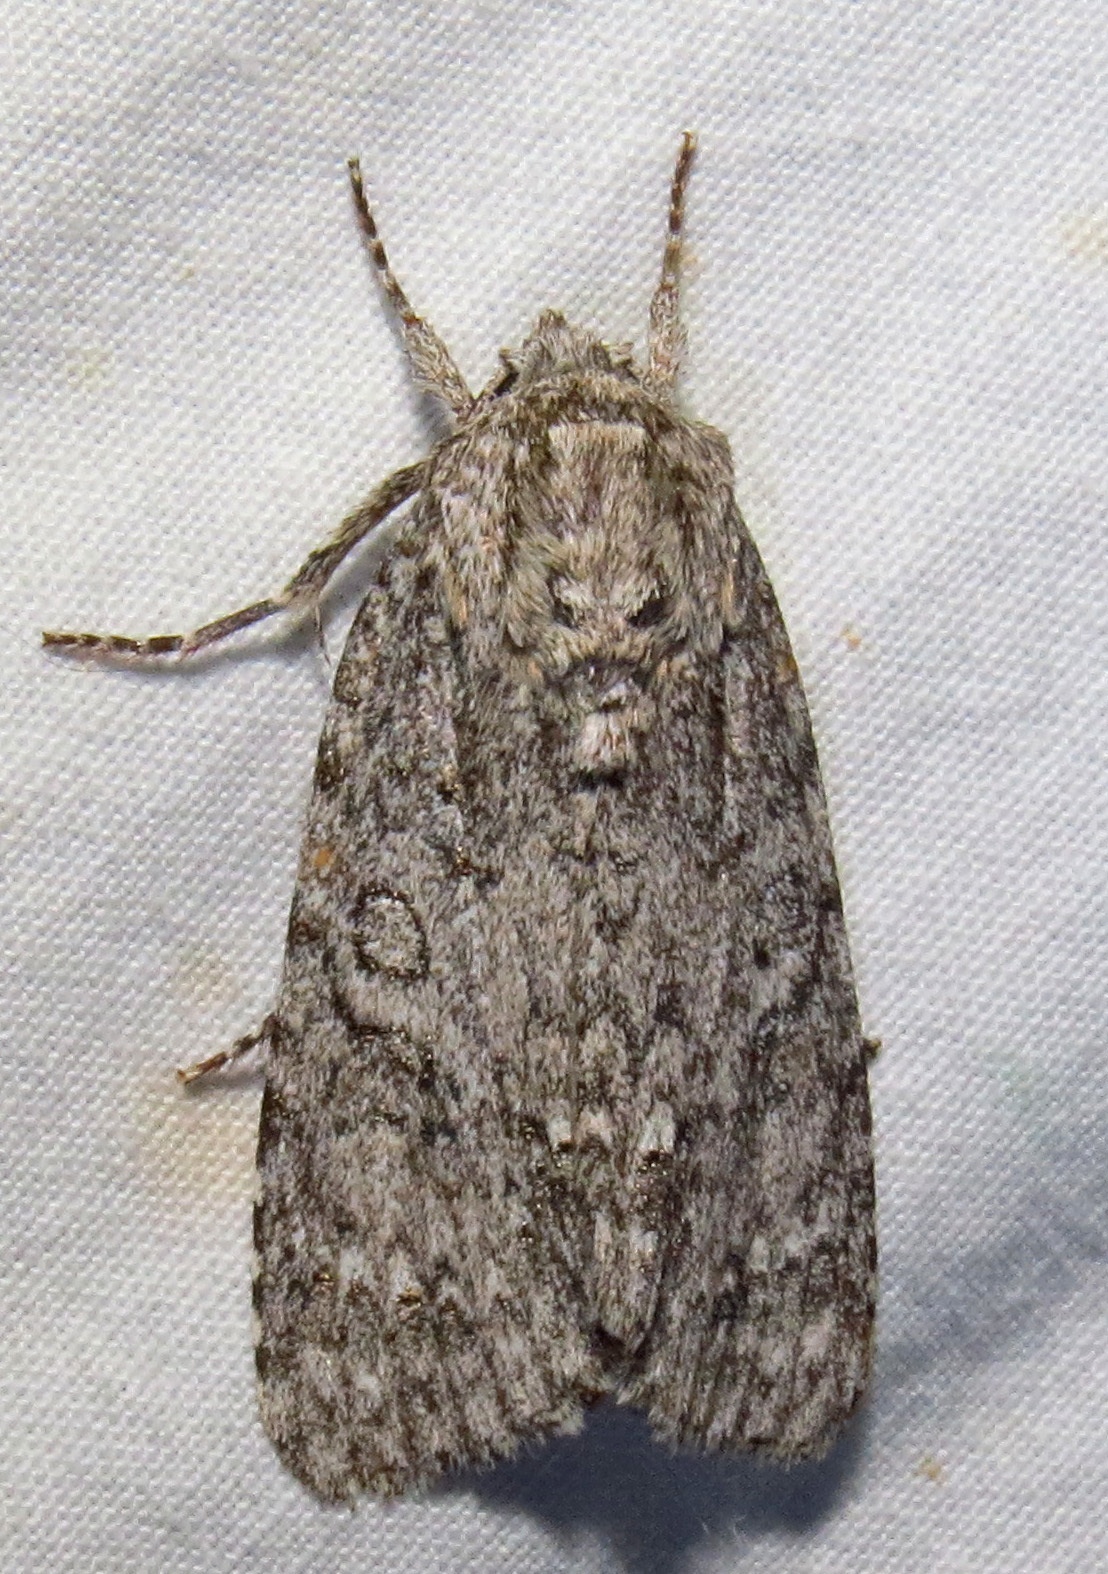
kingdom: Animalia
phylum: Arthropoda
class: Insecta
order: Lepidoptera
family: Noctuidae
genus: Acronicta
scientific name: Acronicta impleta
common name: Powdered dagger
